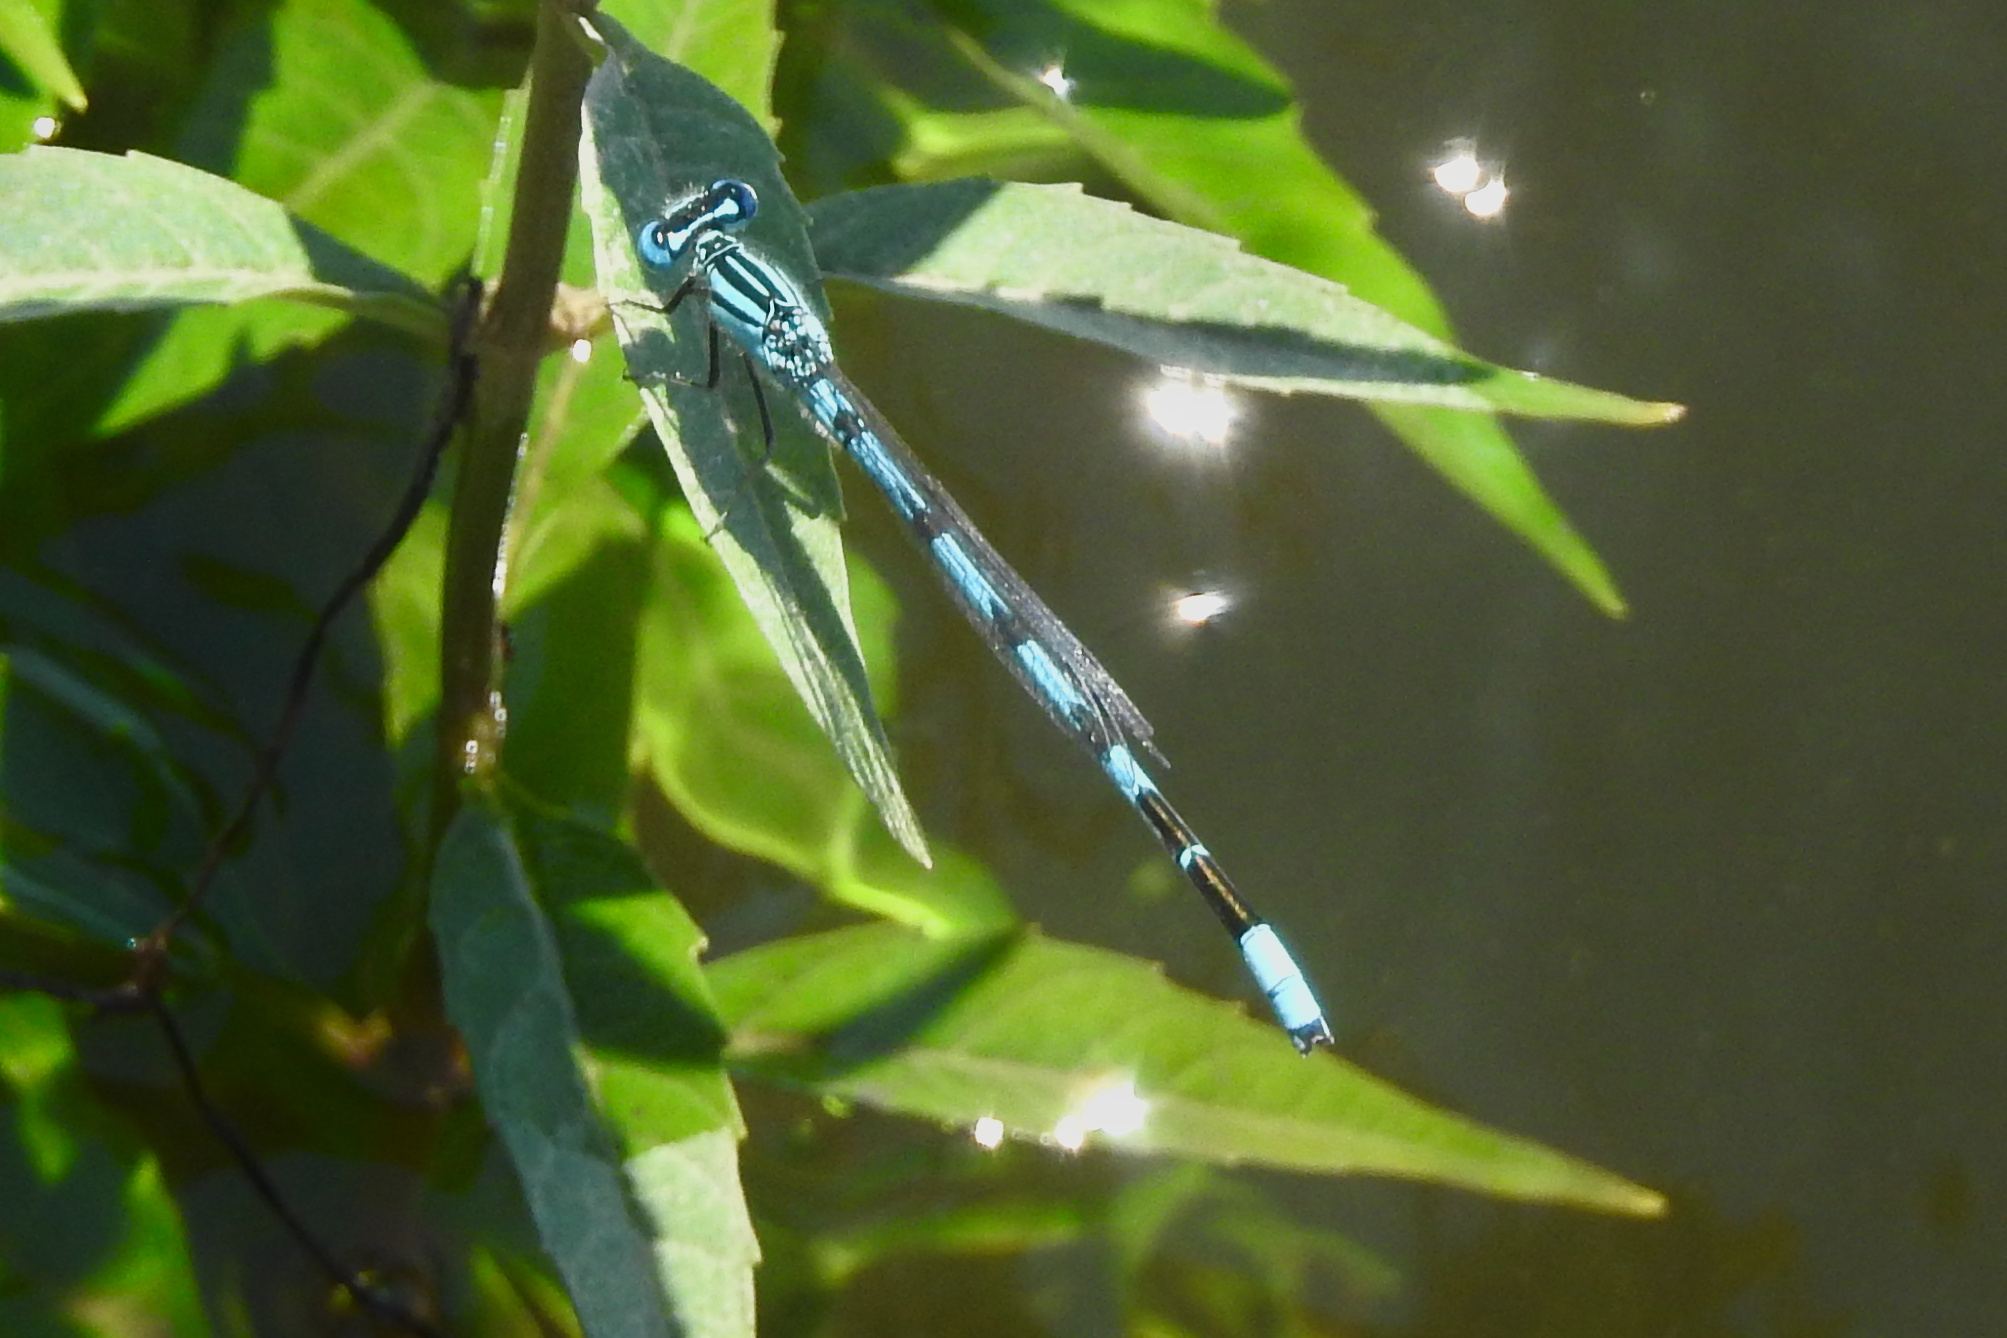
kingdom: Animalia
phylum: Arthropoda
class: Insecta
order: Odonata
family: Coenagrionidae
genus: Enallagma
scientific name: Enallagma durum
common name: Big bluet
